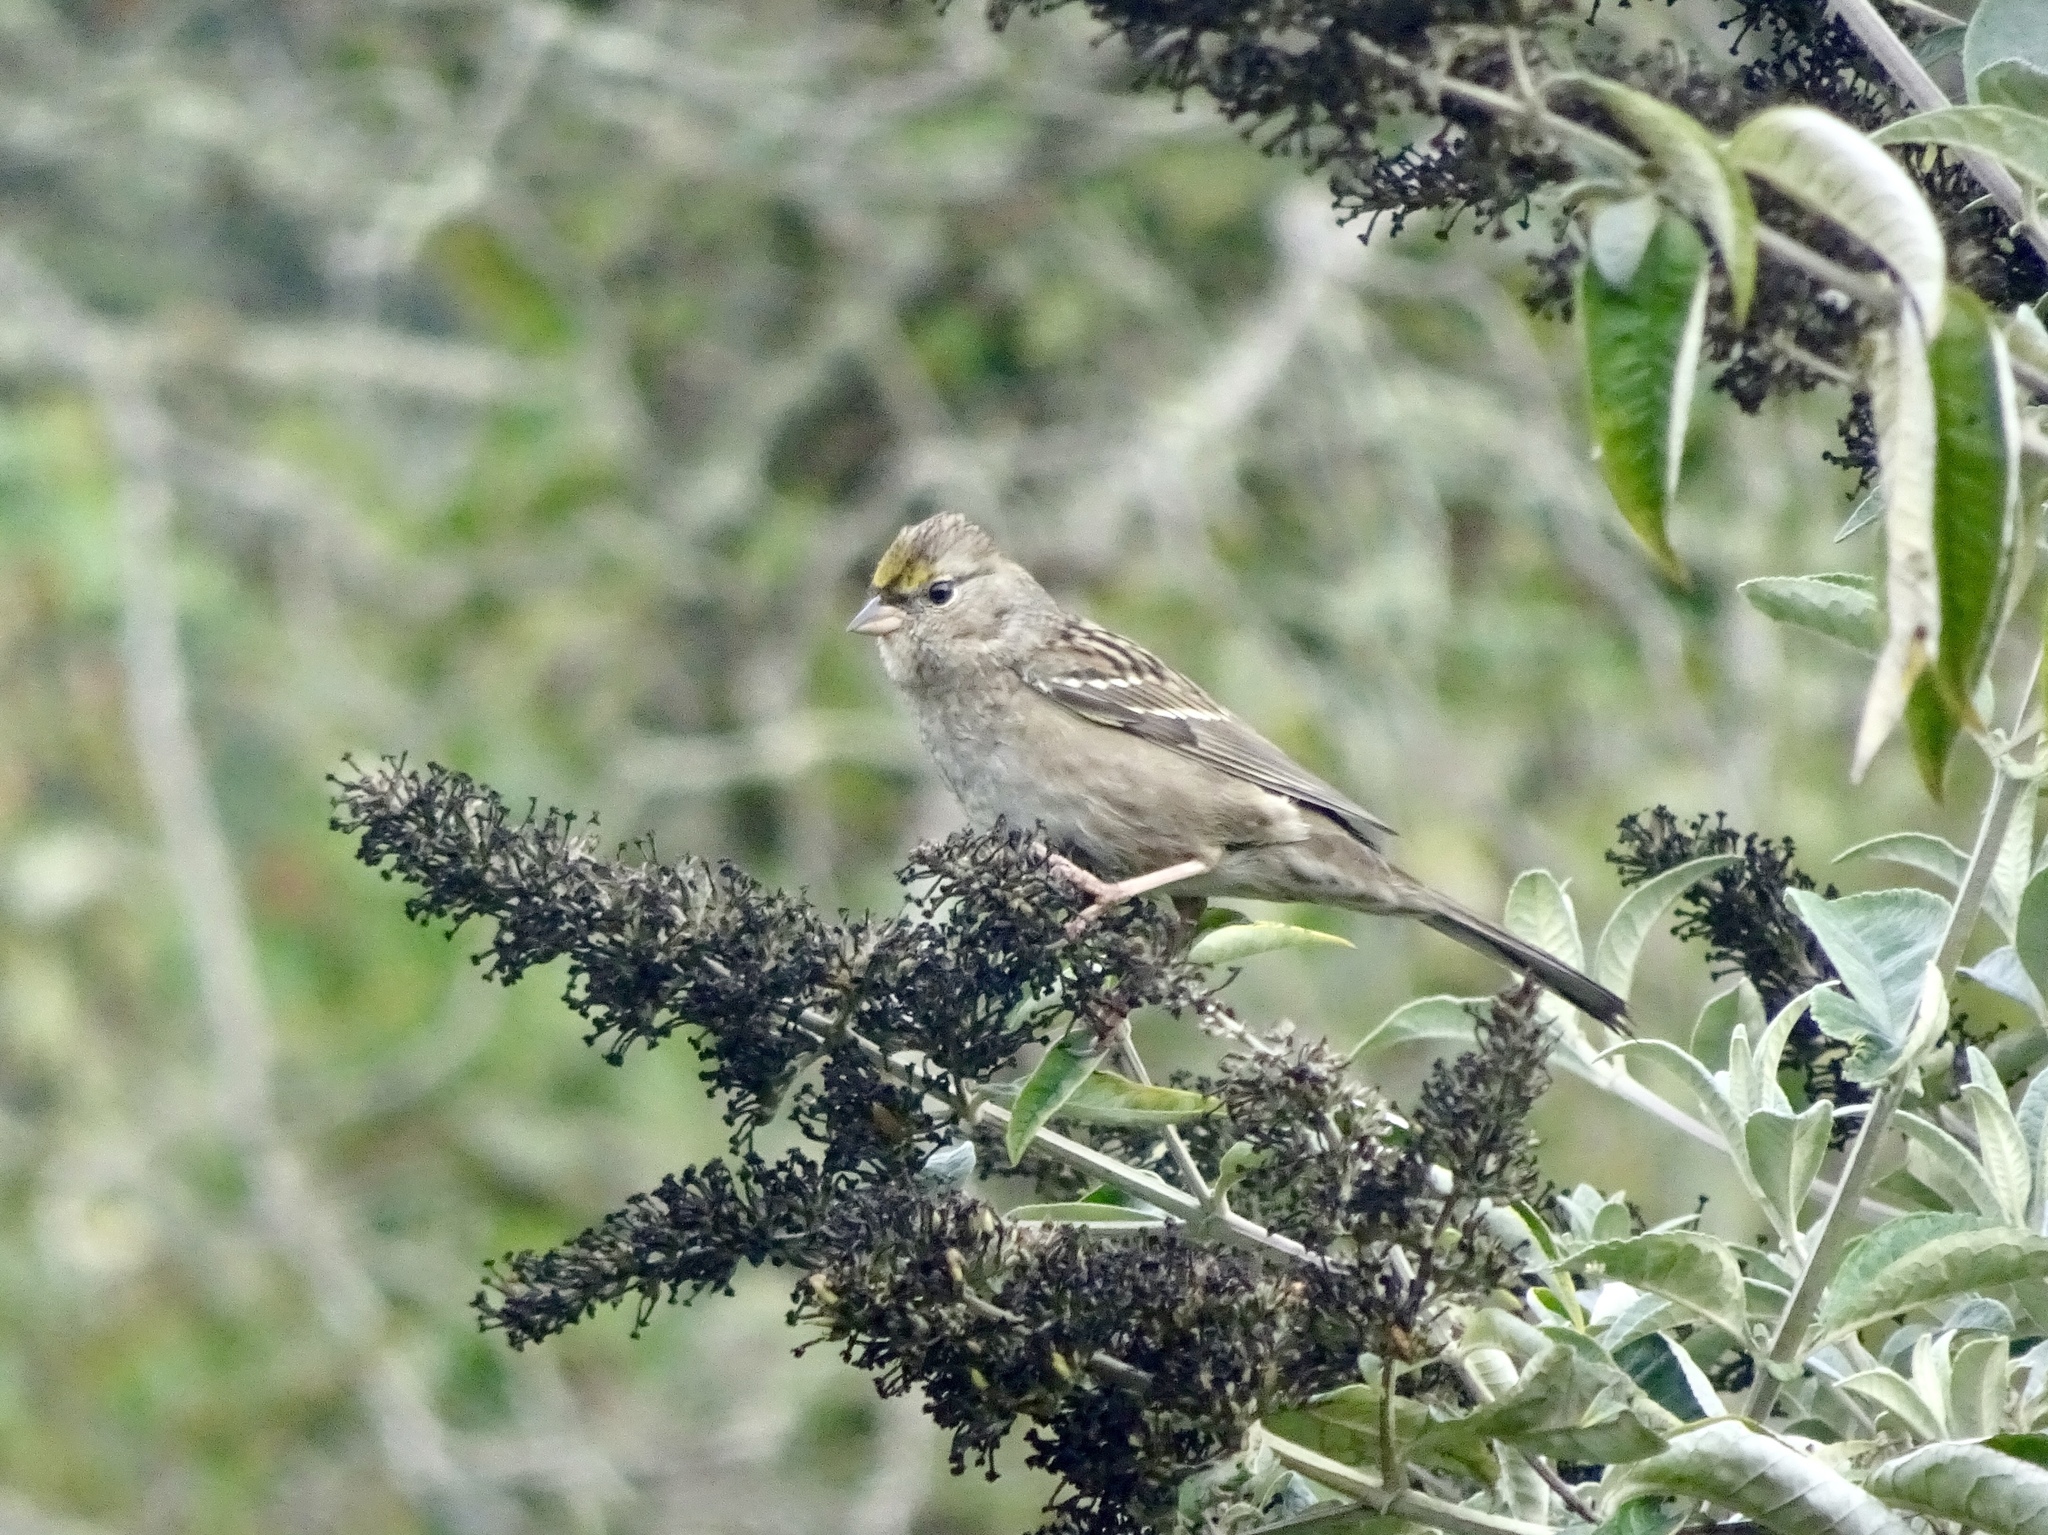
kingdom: Animalia
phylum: Chordata
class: Aves
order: Passeriformes
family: Passerellidae
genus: Zonotrichia
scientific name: Zonotrichia atricapilla
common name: Golden-crowned sparrow
